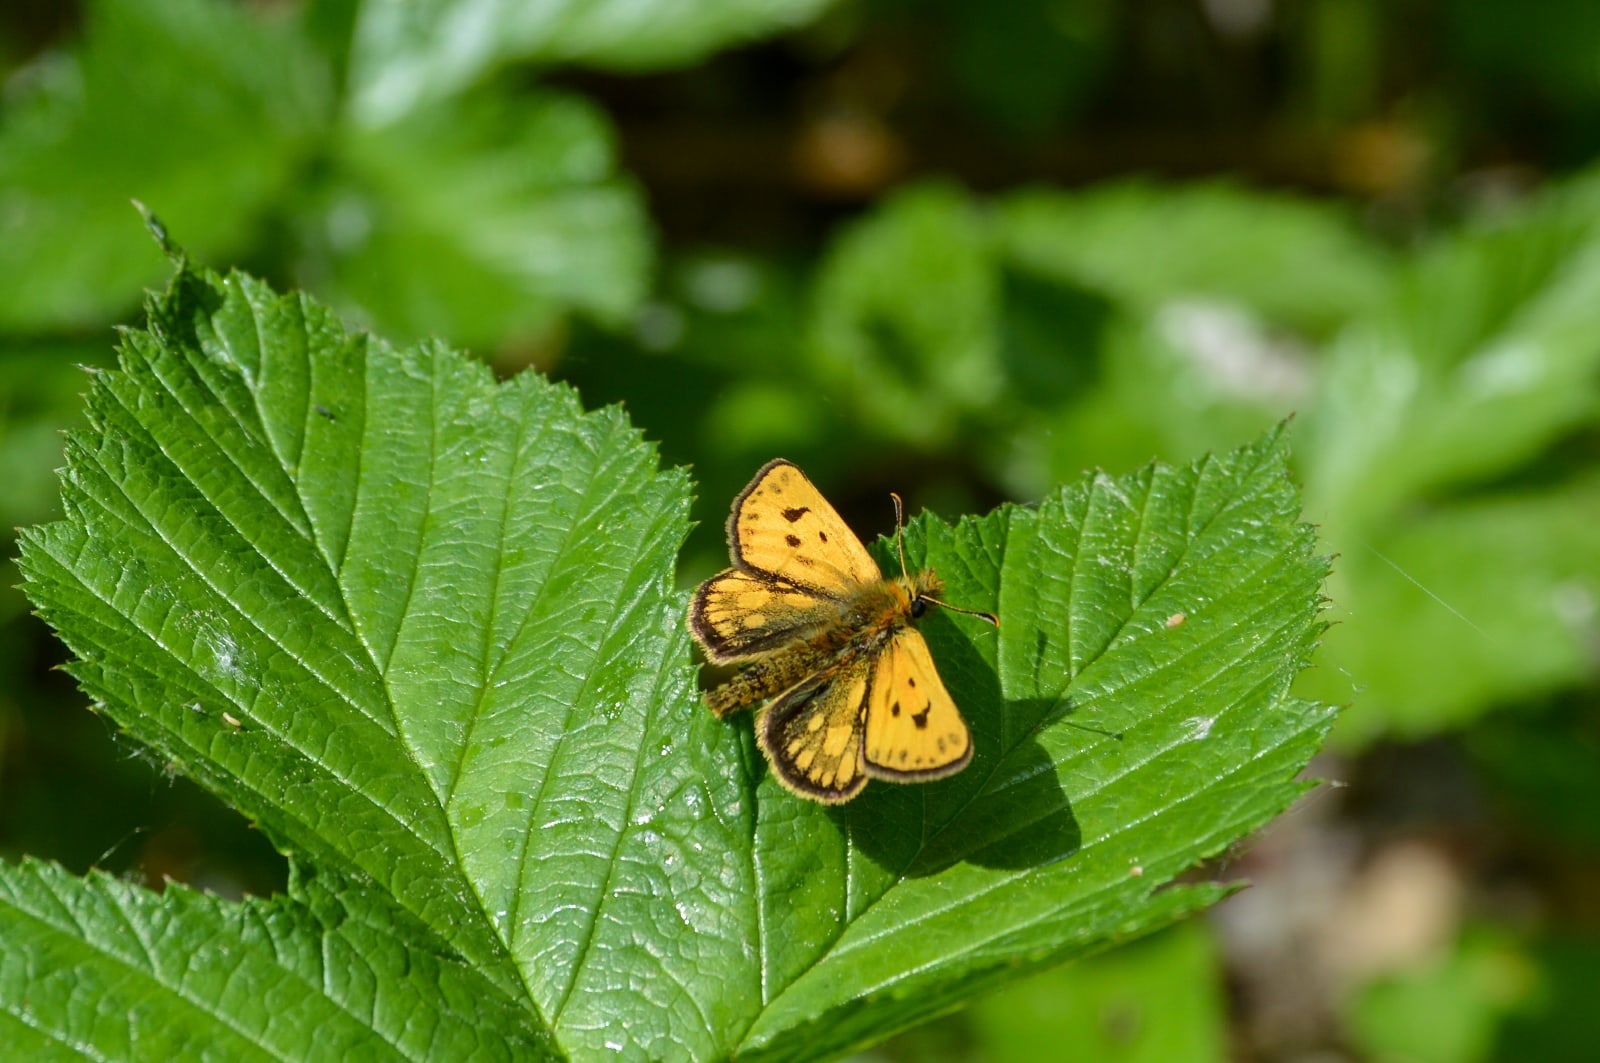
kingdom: Animalia
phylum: Arthropoda
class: Insecta
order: Lepidoptera
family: Hesperiidae
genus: Carterocephalus
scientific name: Carterocephalus silvicola
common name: Northern chequered skipper
